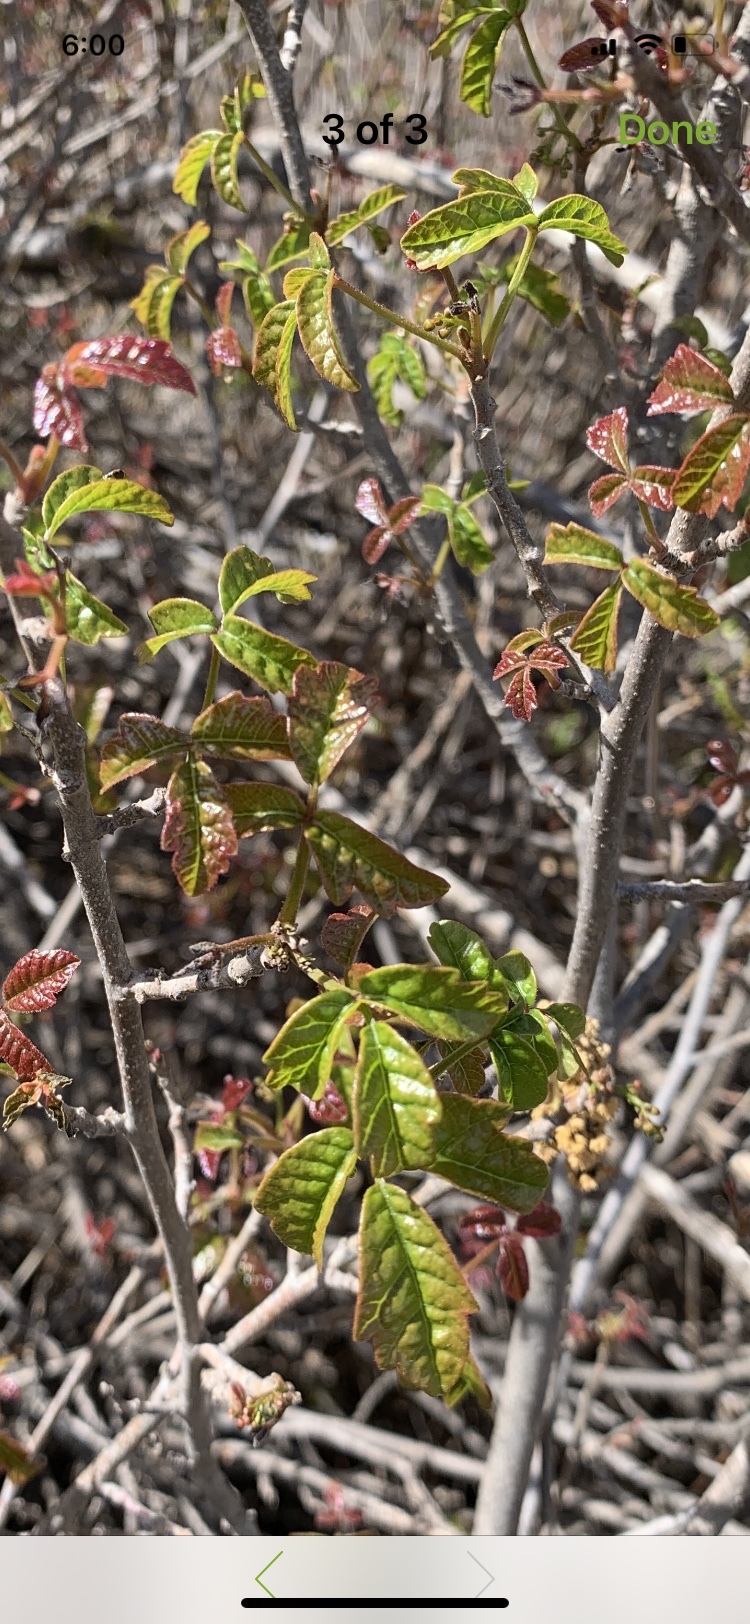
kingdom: Plantae
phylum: Tracheophyta
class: Magnoliopsida
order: Sapindales
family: Anacardiaceae
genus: Toxicodendron
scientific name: Toxicodendron diversilobum
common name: Pacific poison-oak
